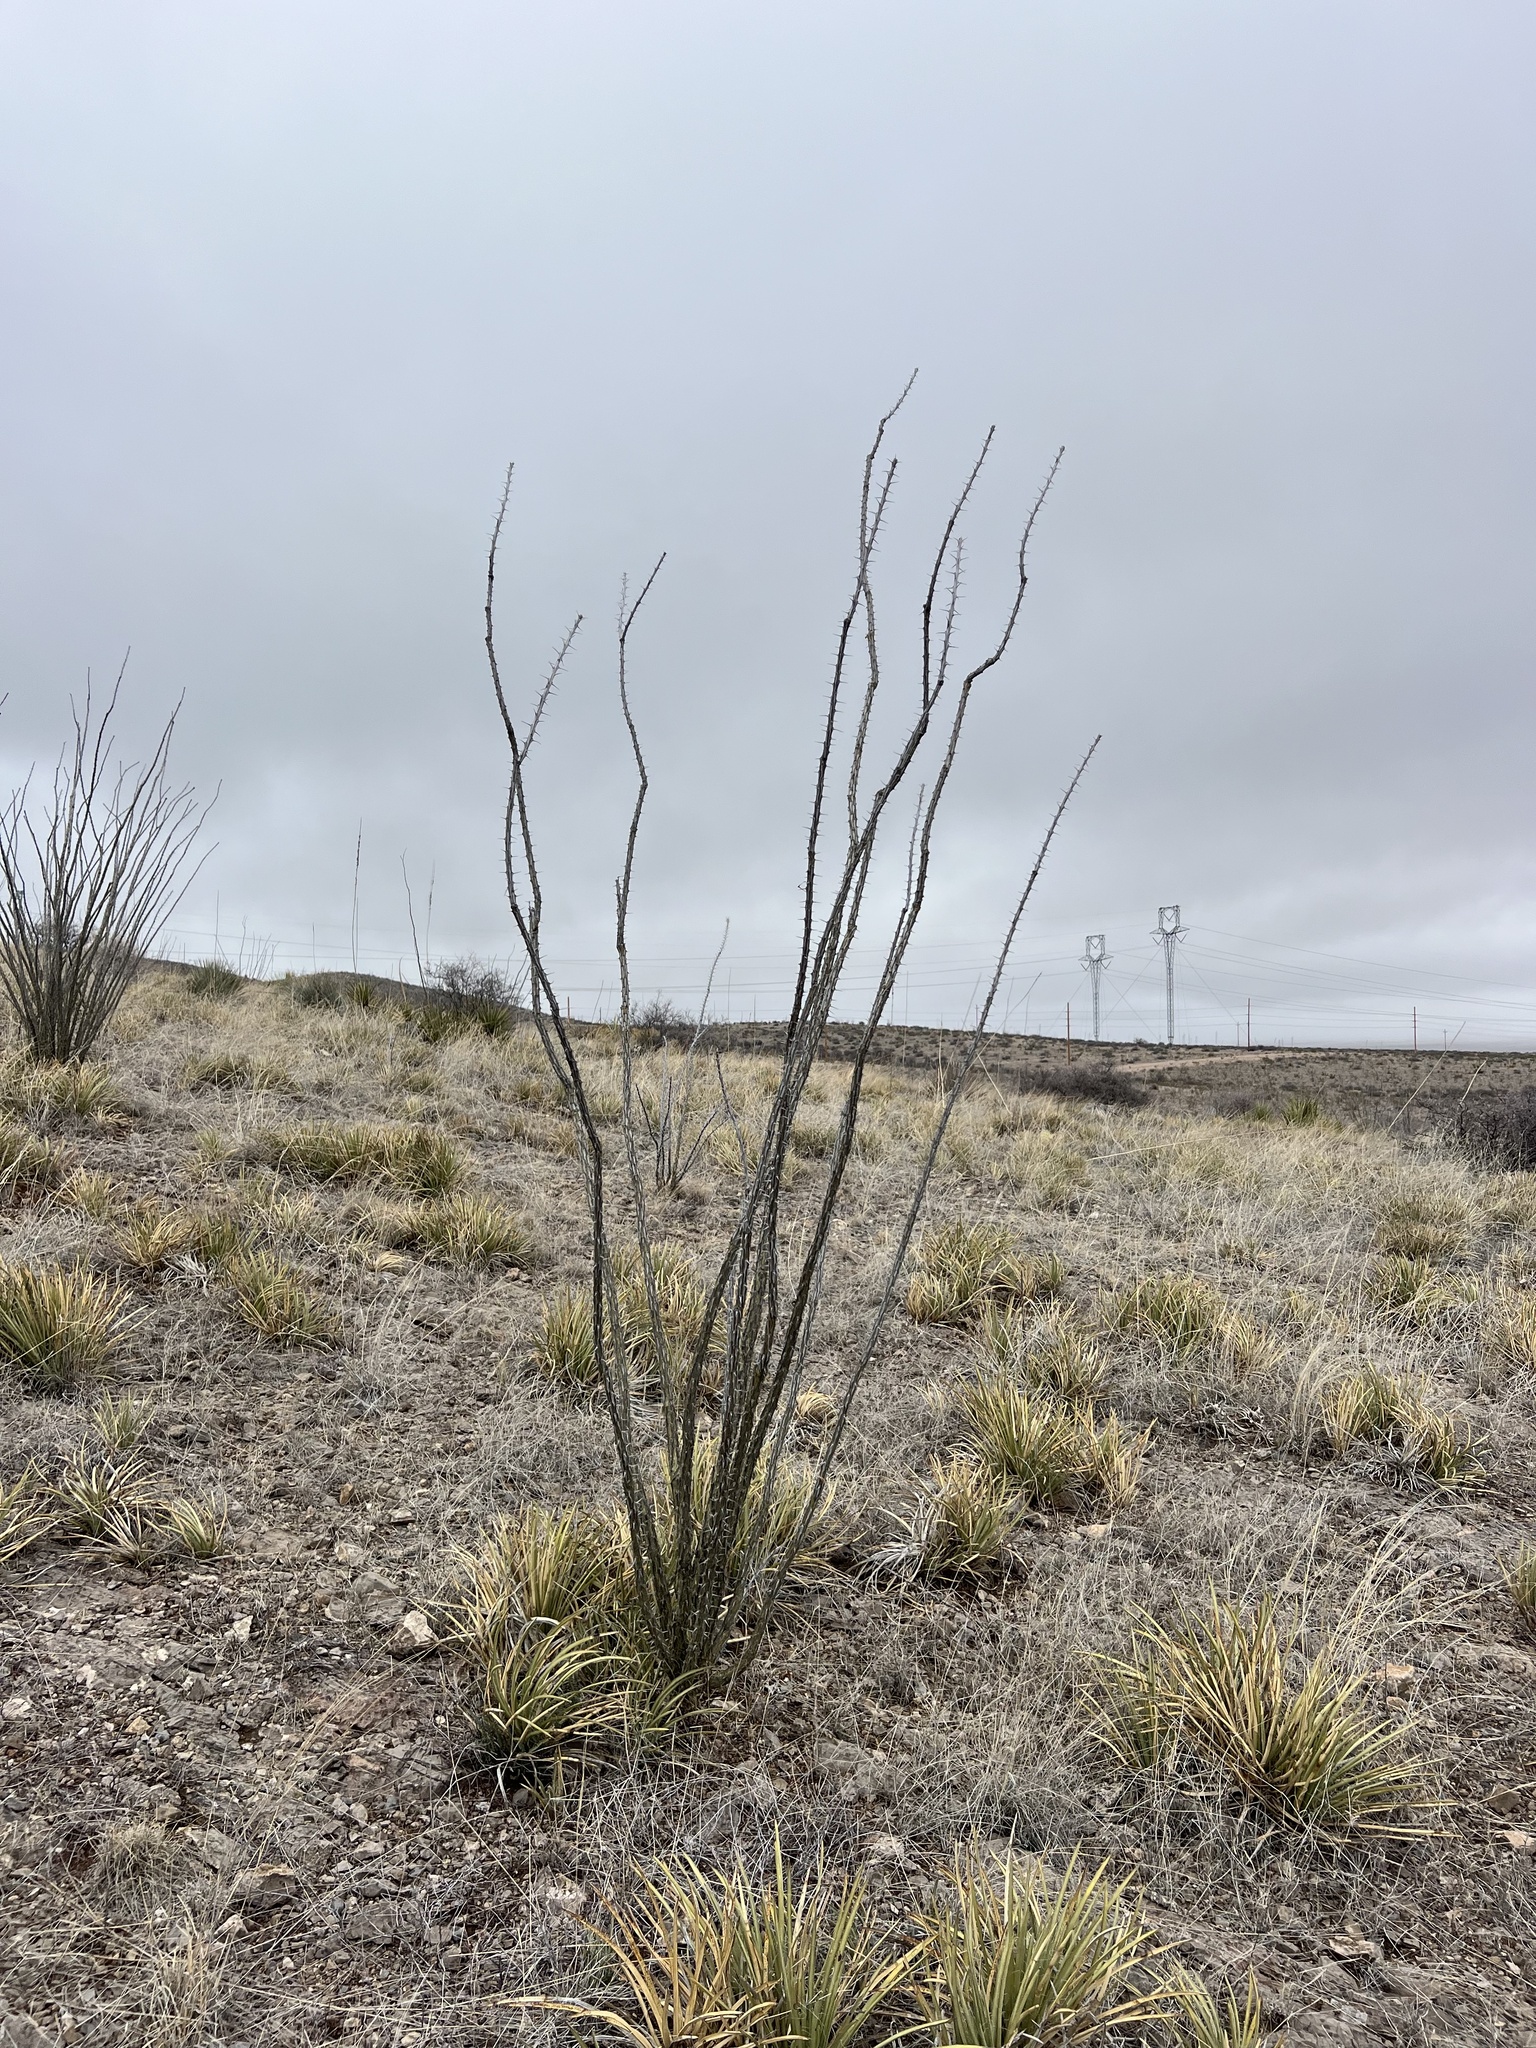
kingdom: Plantae
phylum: Tracheophyta
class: Magnoliopsida
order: Ericales
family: Fouquieriaceae
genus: Fouquieria
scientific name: Fouquieria splendens
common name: Vine-cactus
